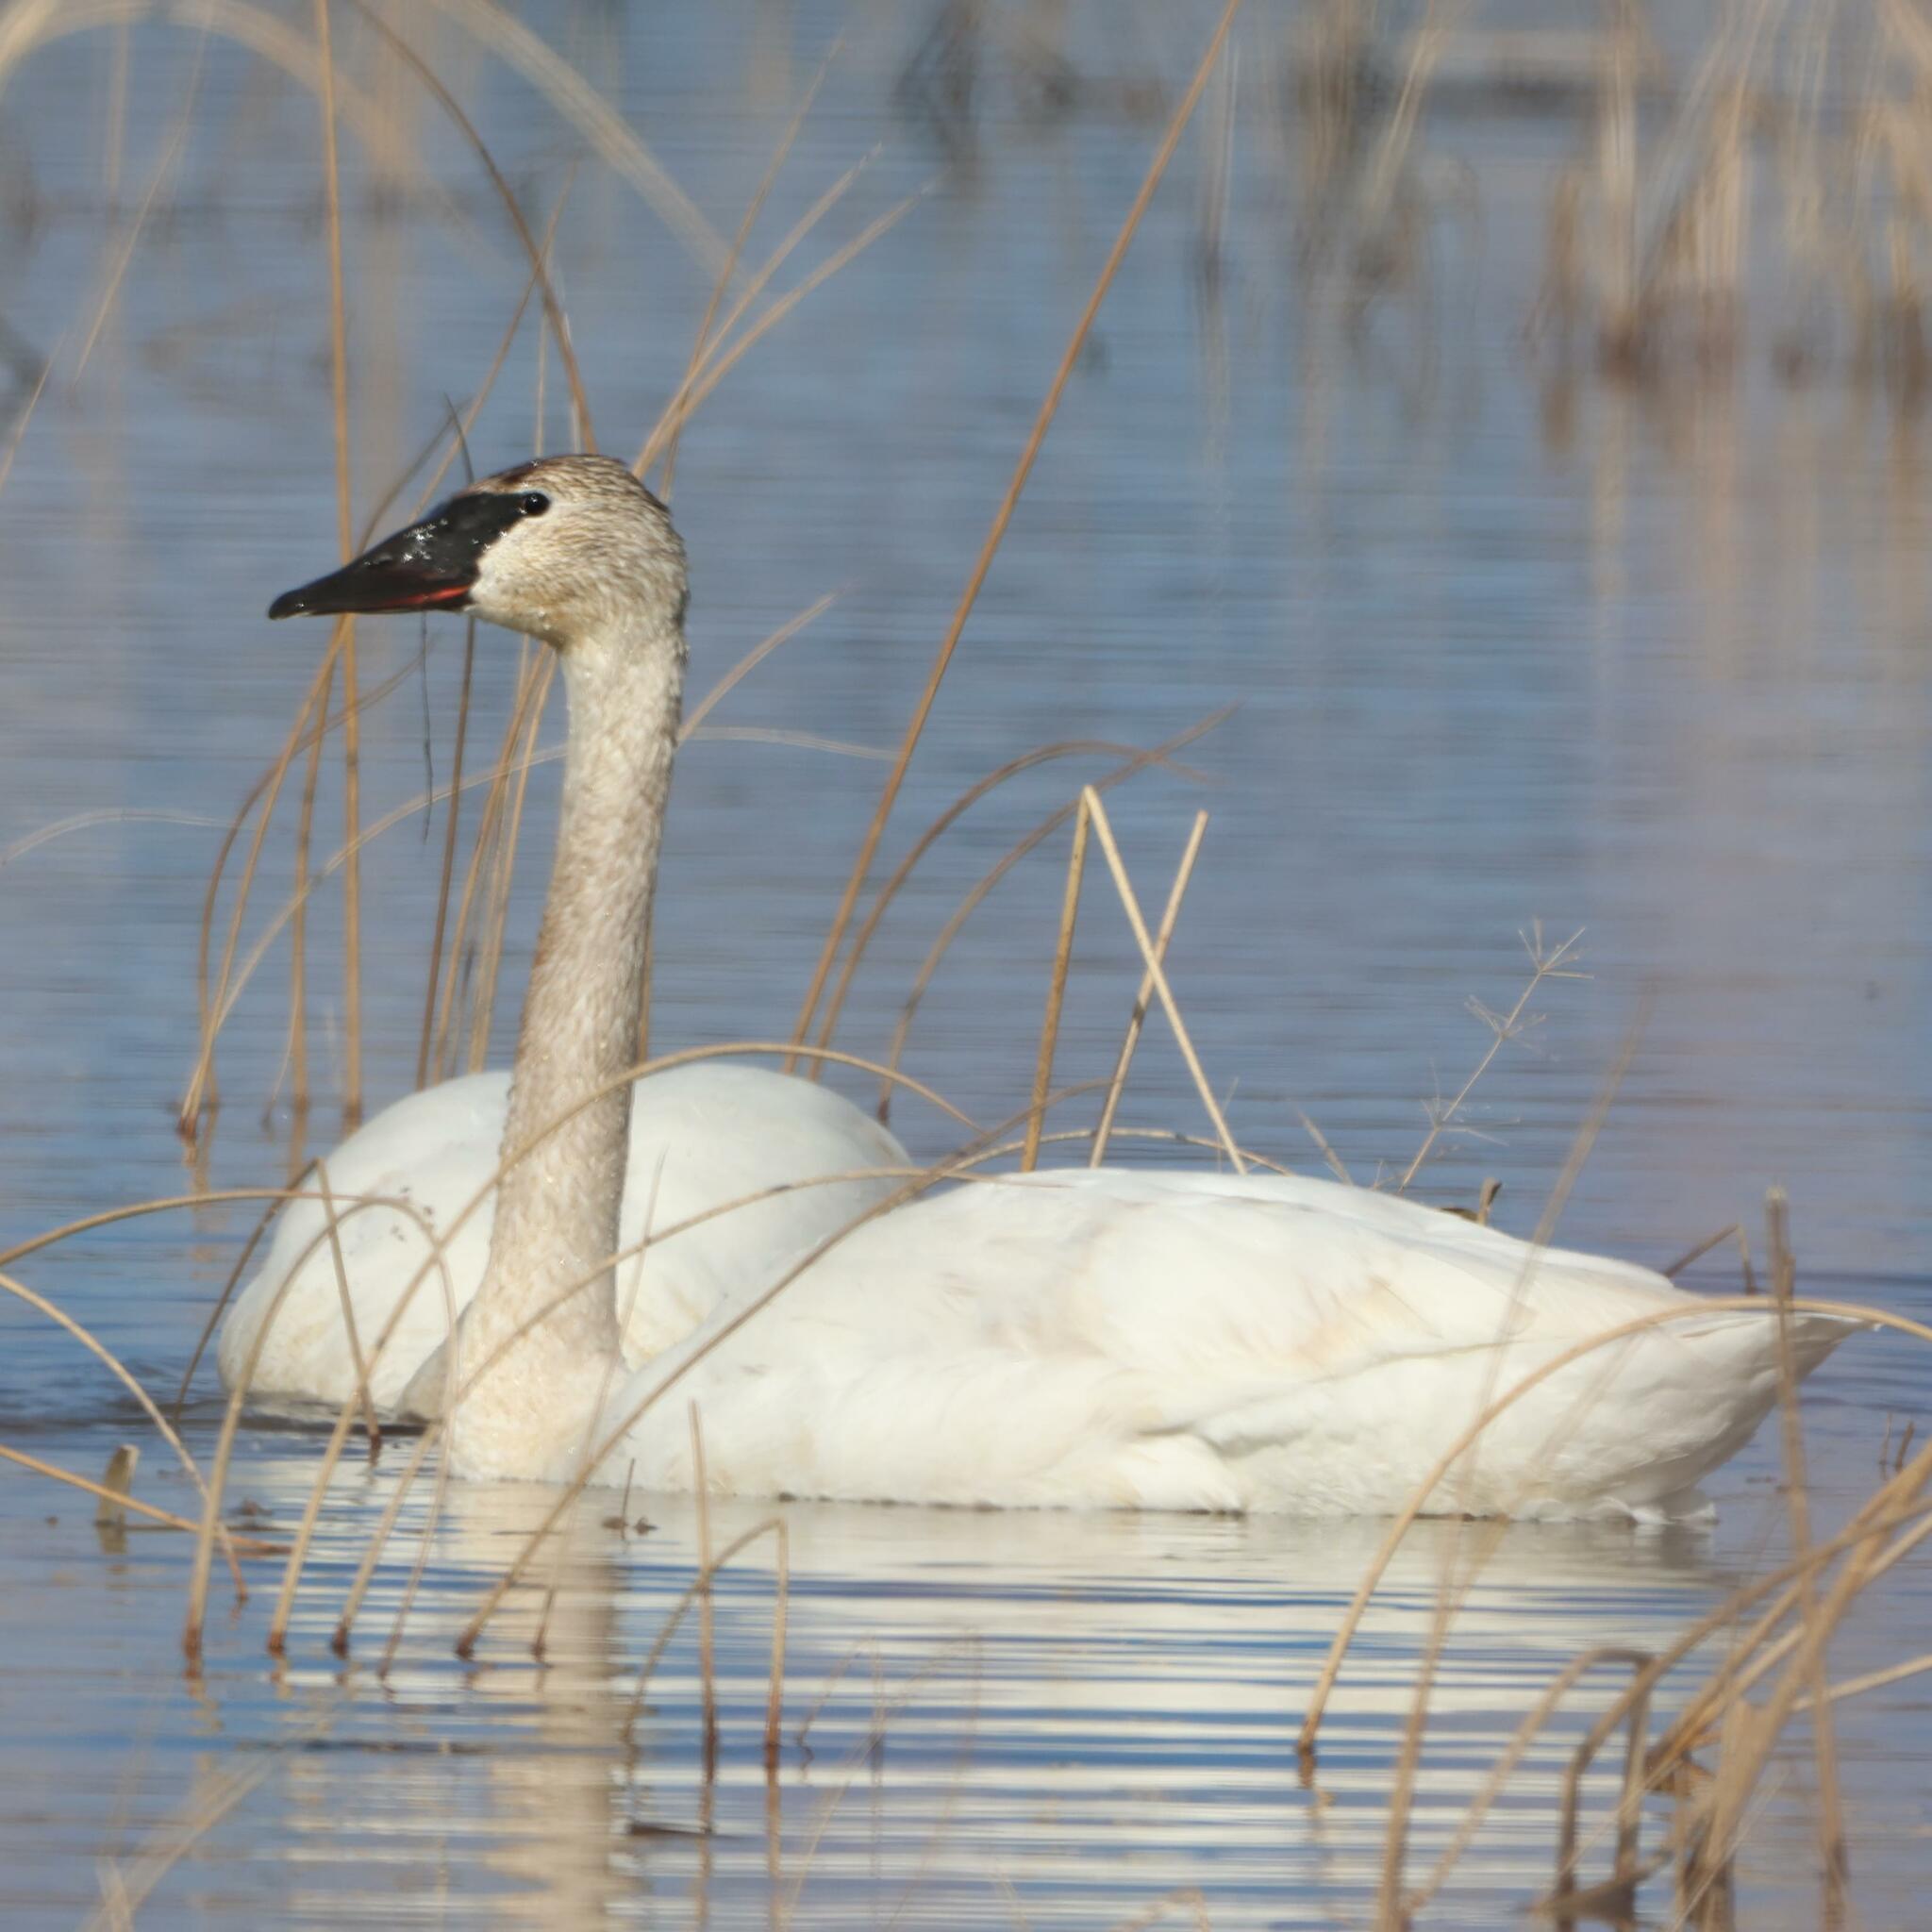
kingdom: Animalia
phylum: Chordata
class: Aves
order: Anseriformes
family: Anatidae
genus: Cygnus
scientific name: Cygnus buccinator
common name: Trumpeter swan
